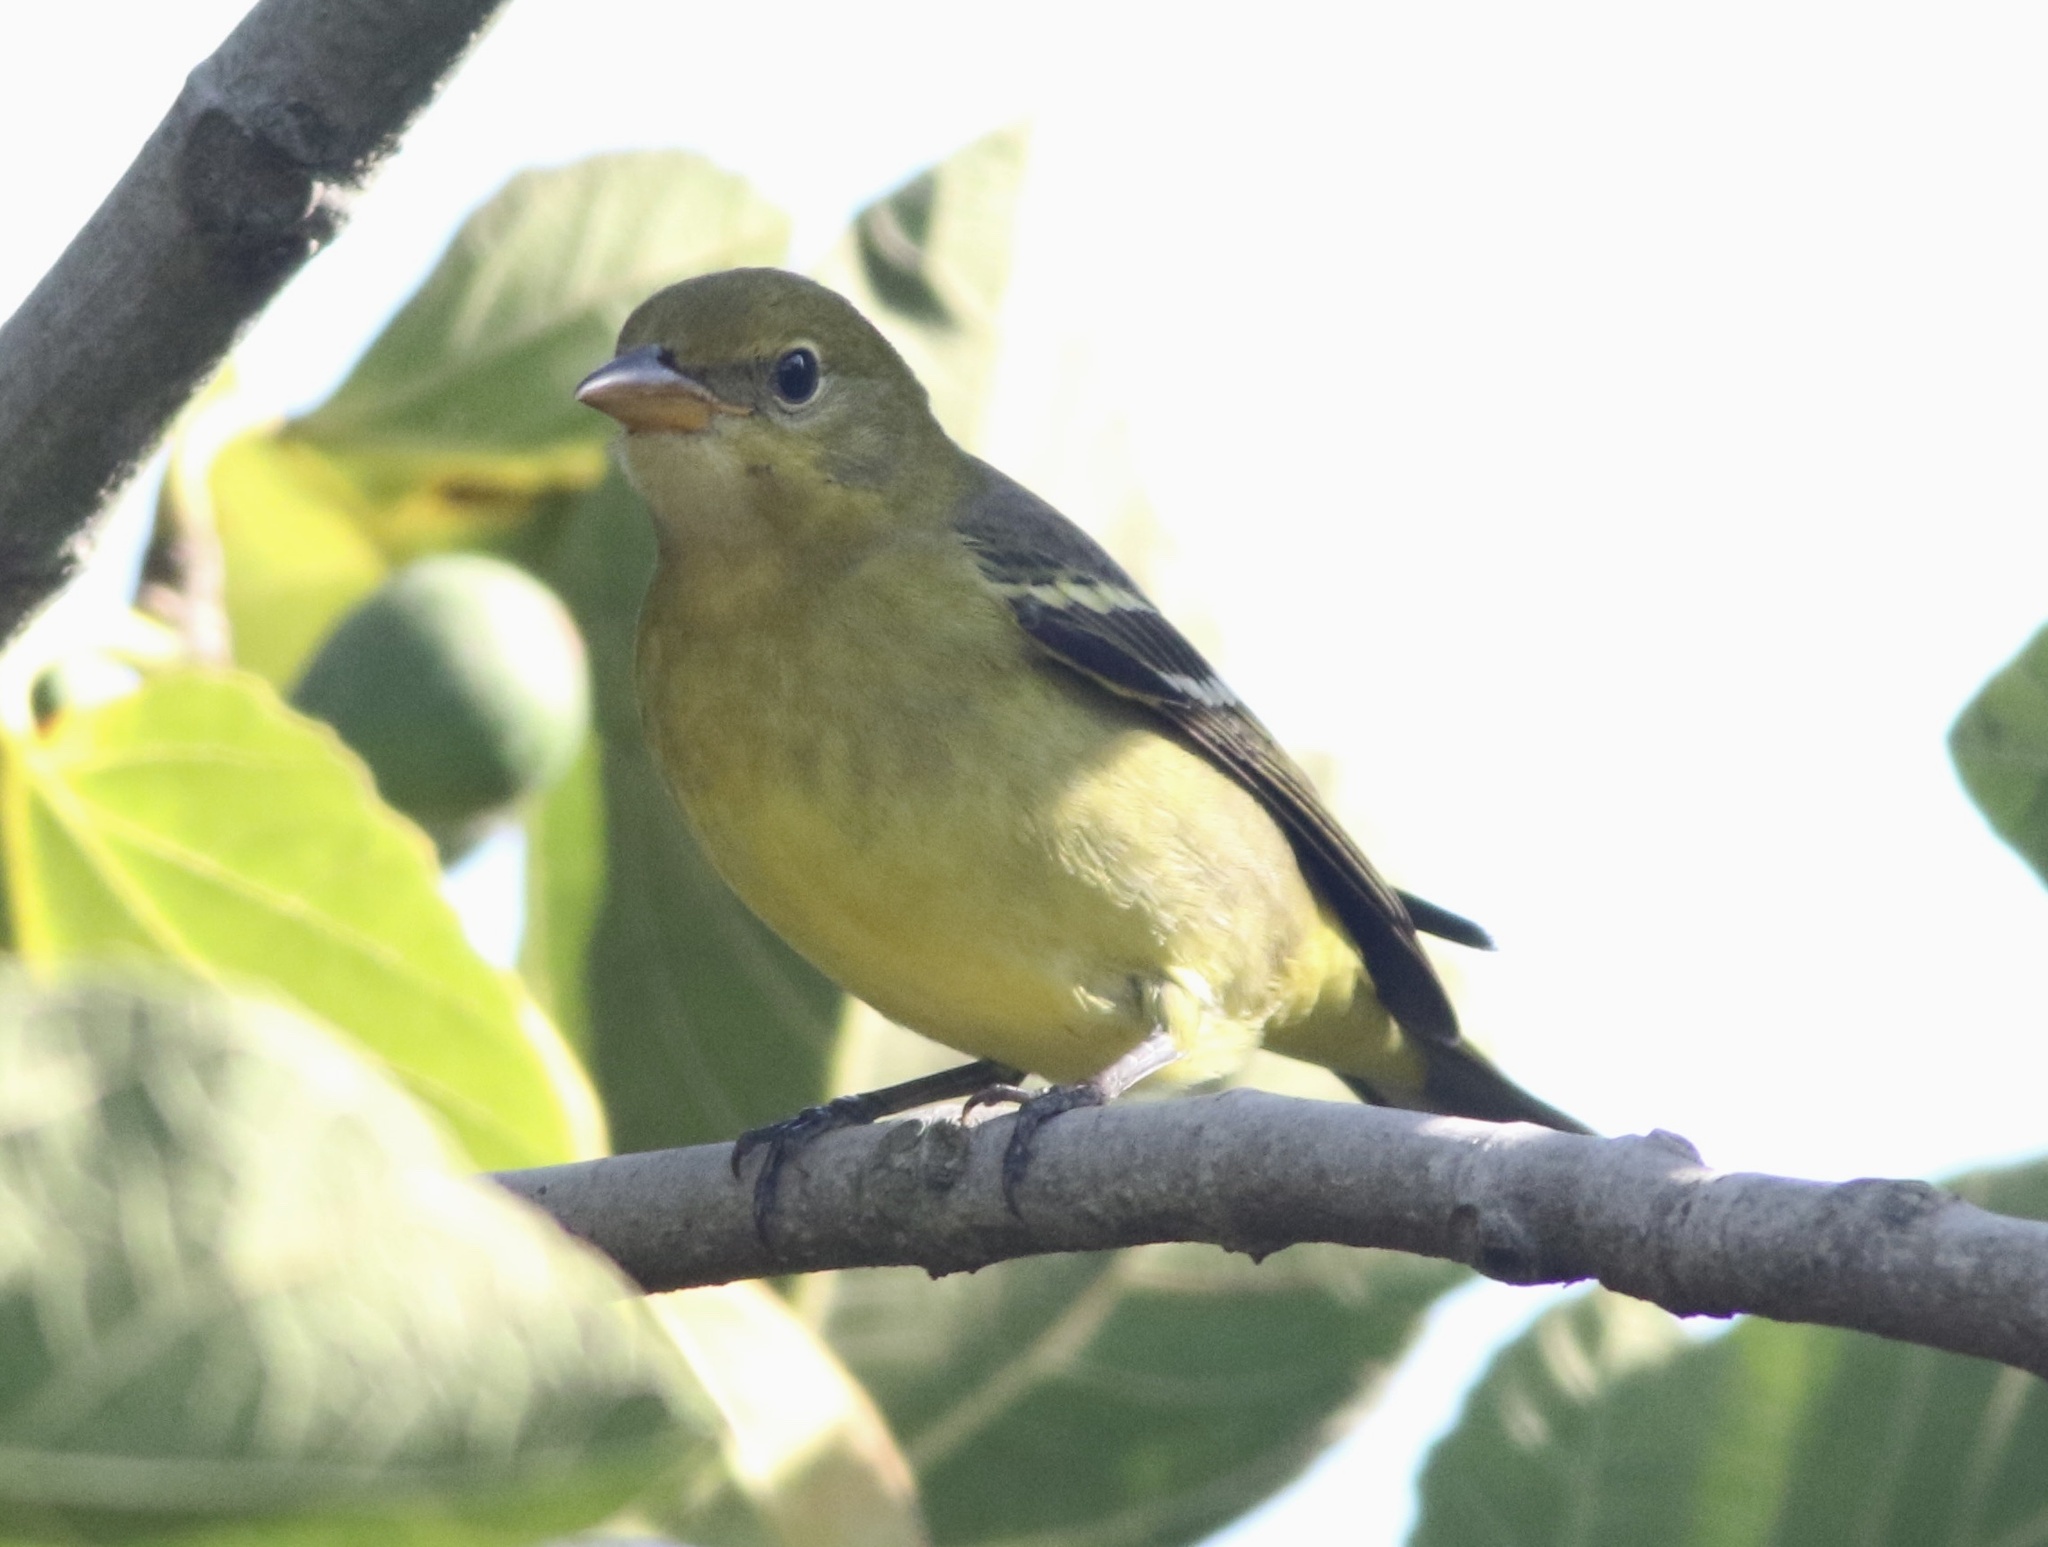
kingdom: Animalia
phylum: Chordata
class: Aves
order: Passeriformes
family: Cardinalidae
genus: Piranga
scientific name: Piranga ludoviciana
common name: Western tanager
